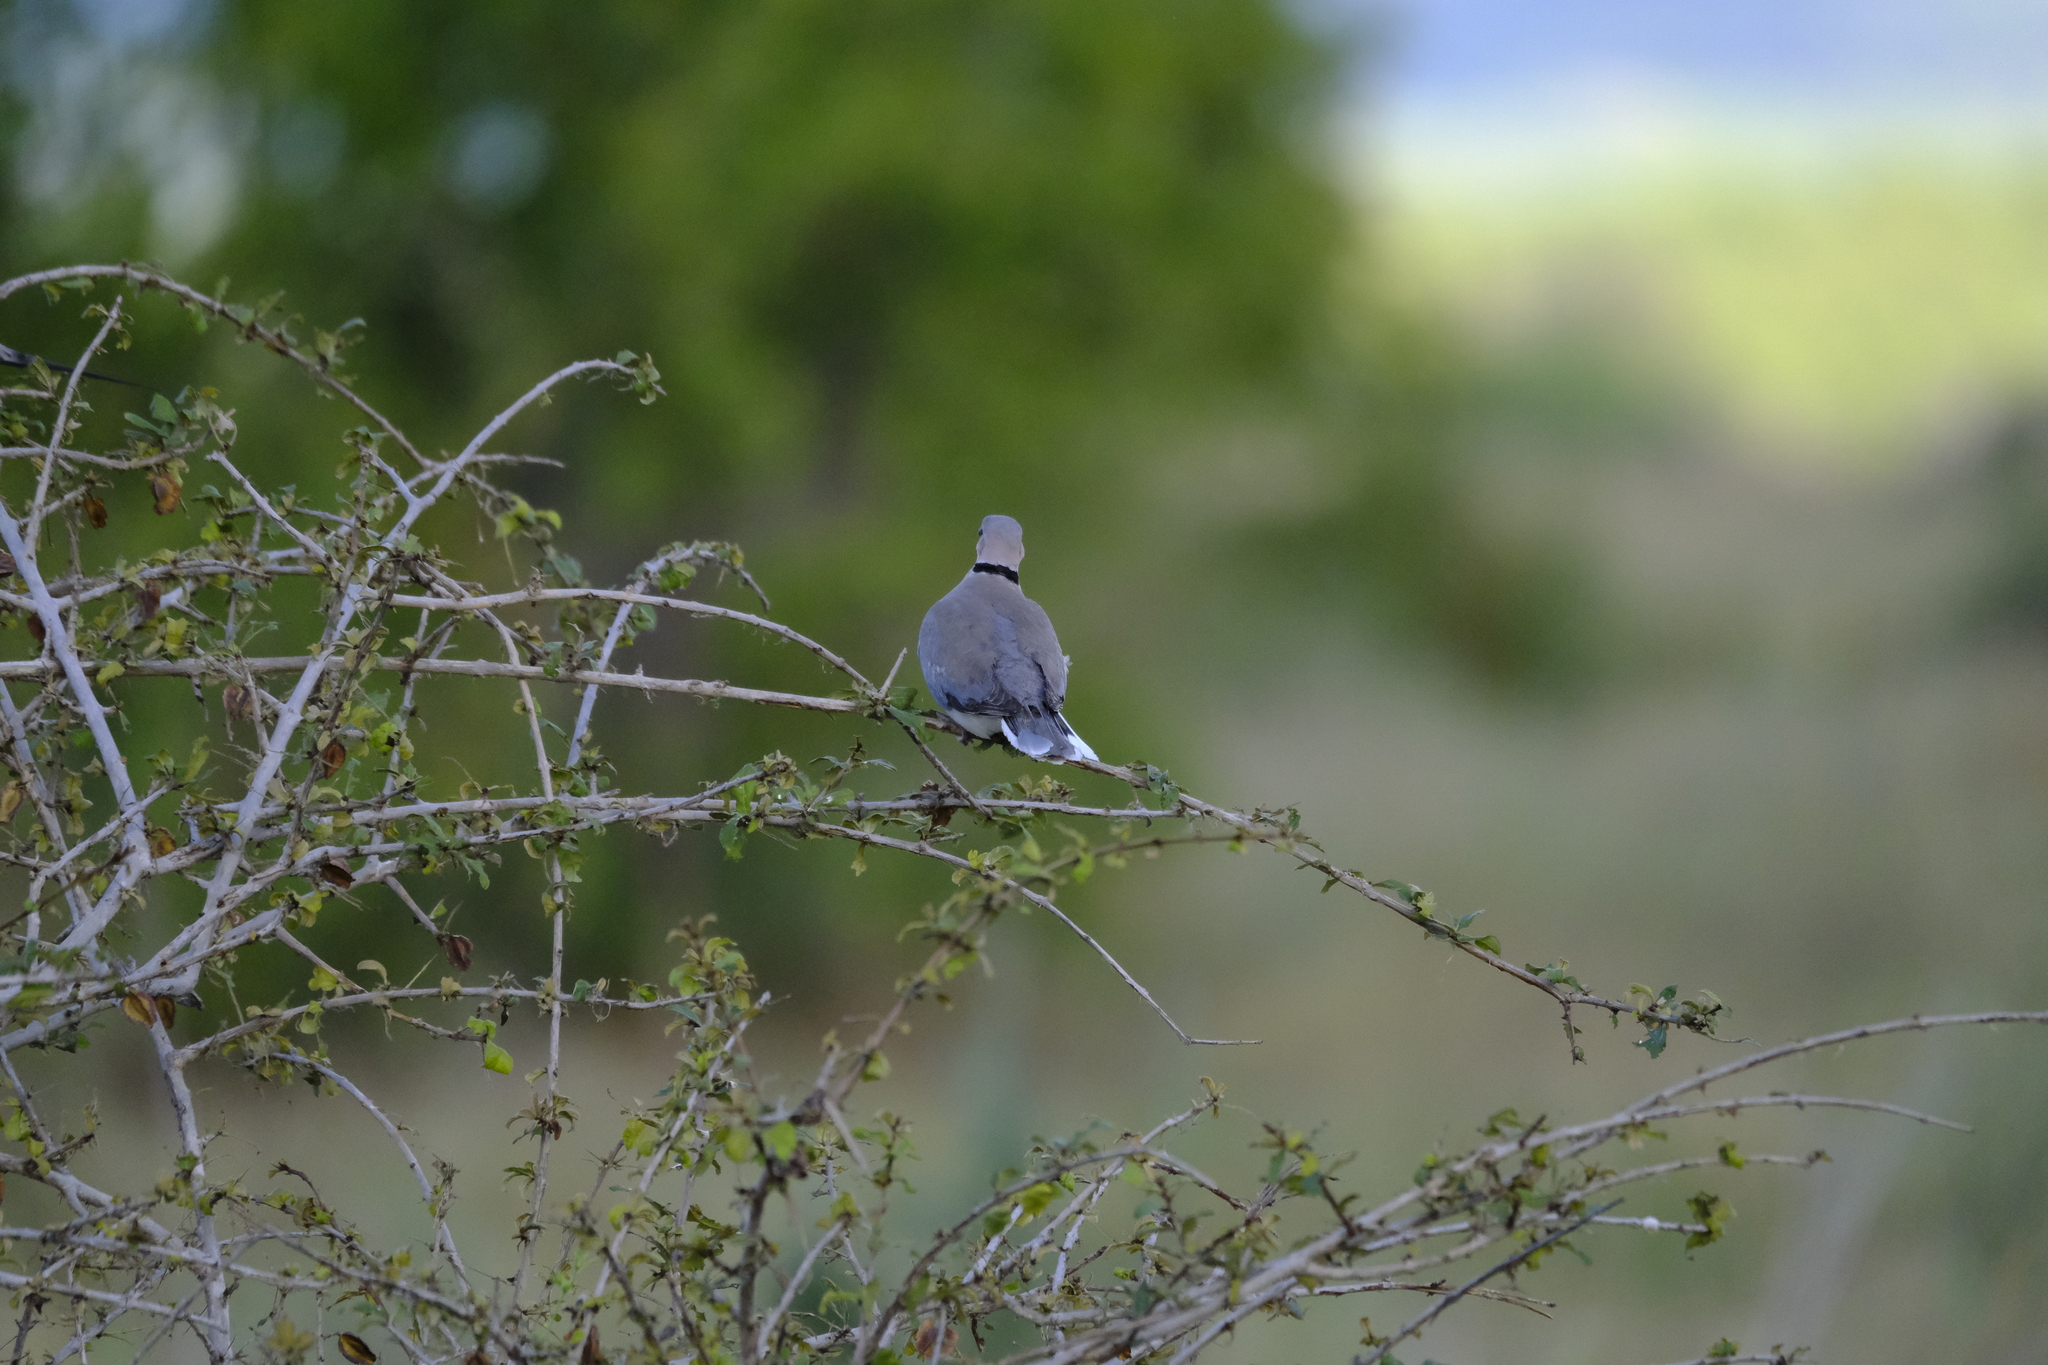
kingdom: Animalia
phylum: Chordata
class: Aves
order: Columbiformes
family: Columbidae
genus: Streptopelia
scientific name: Streptopelia capicola
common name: Ring-necked dove
